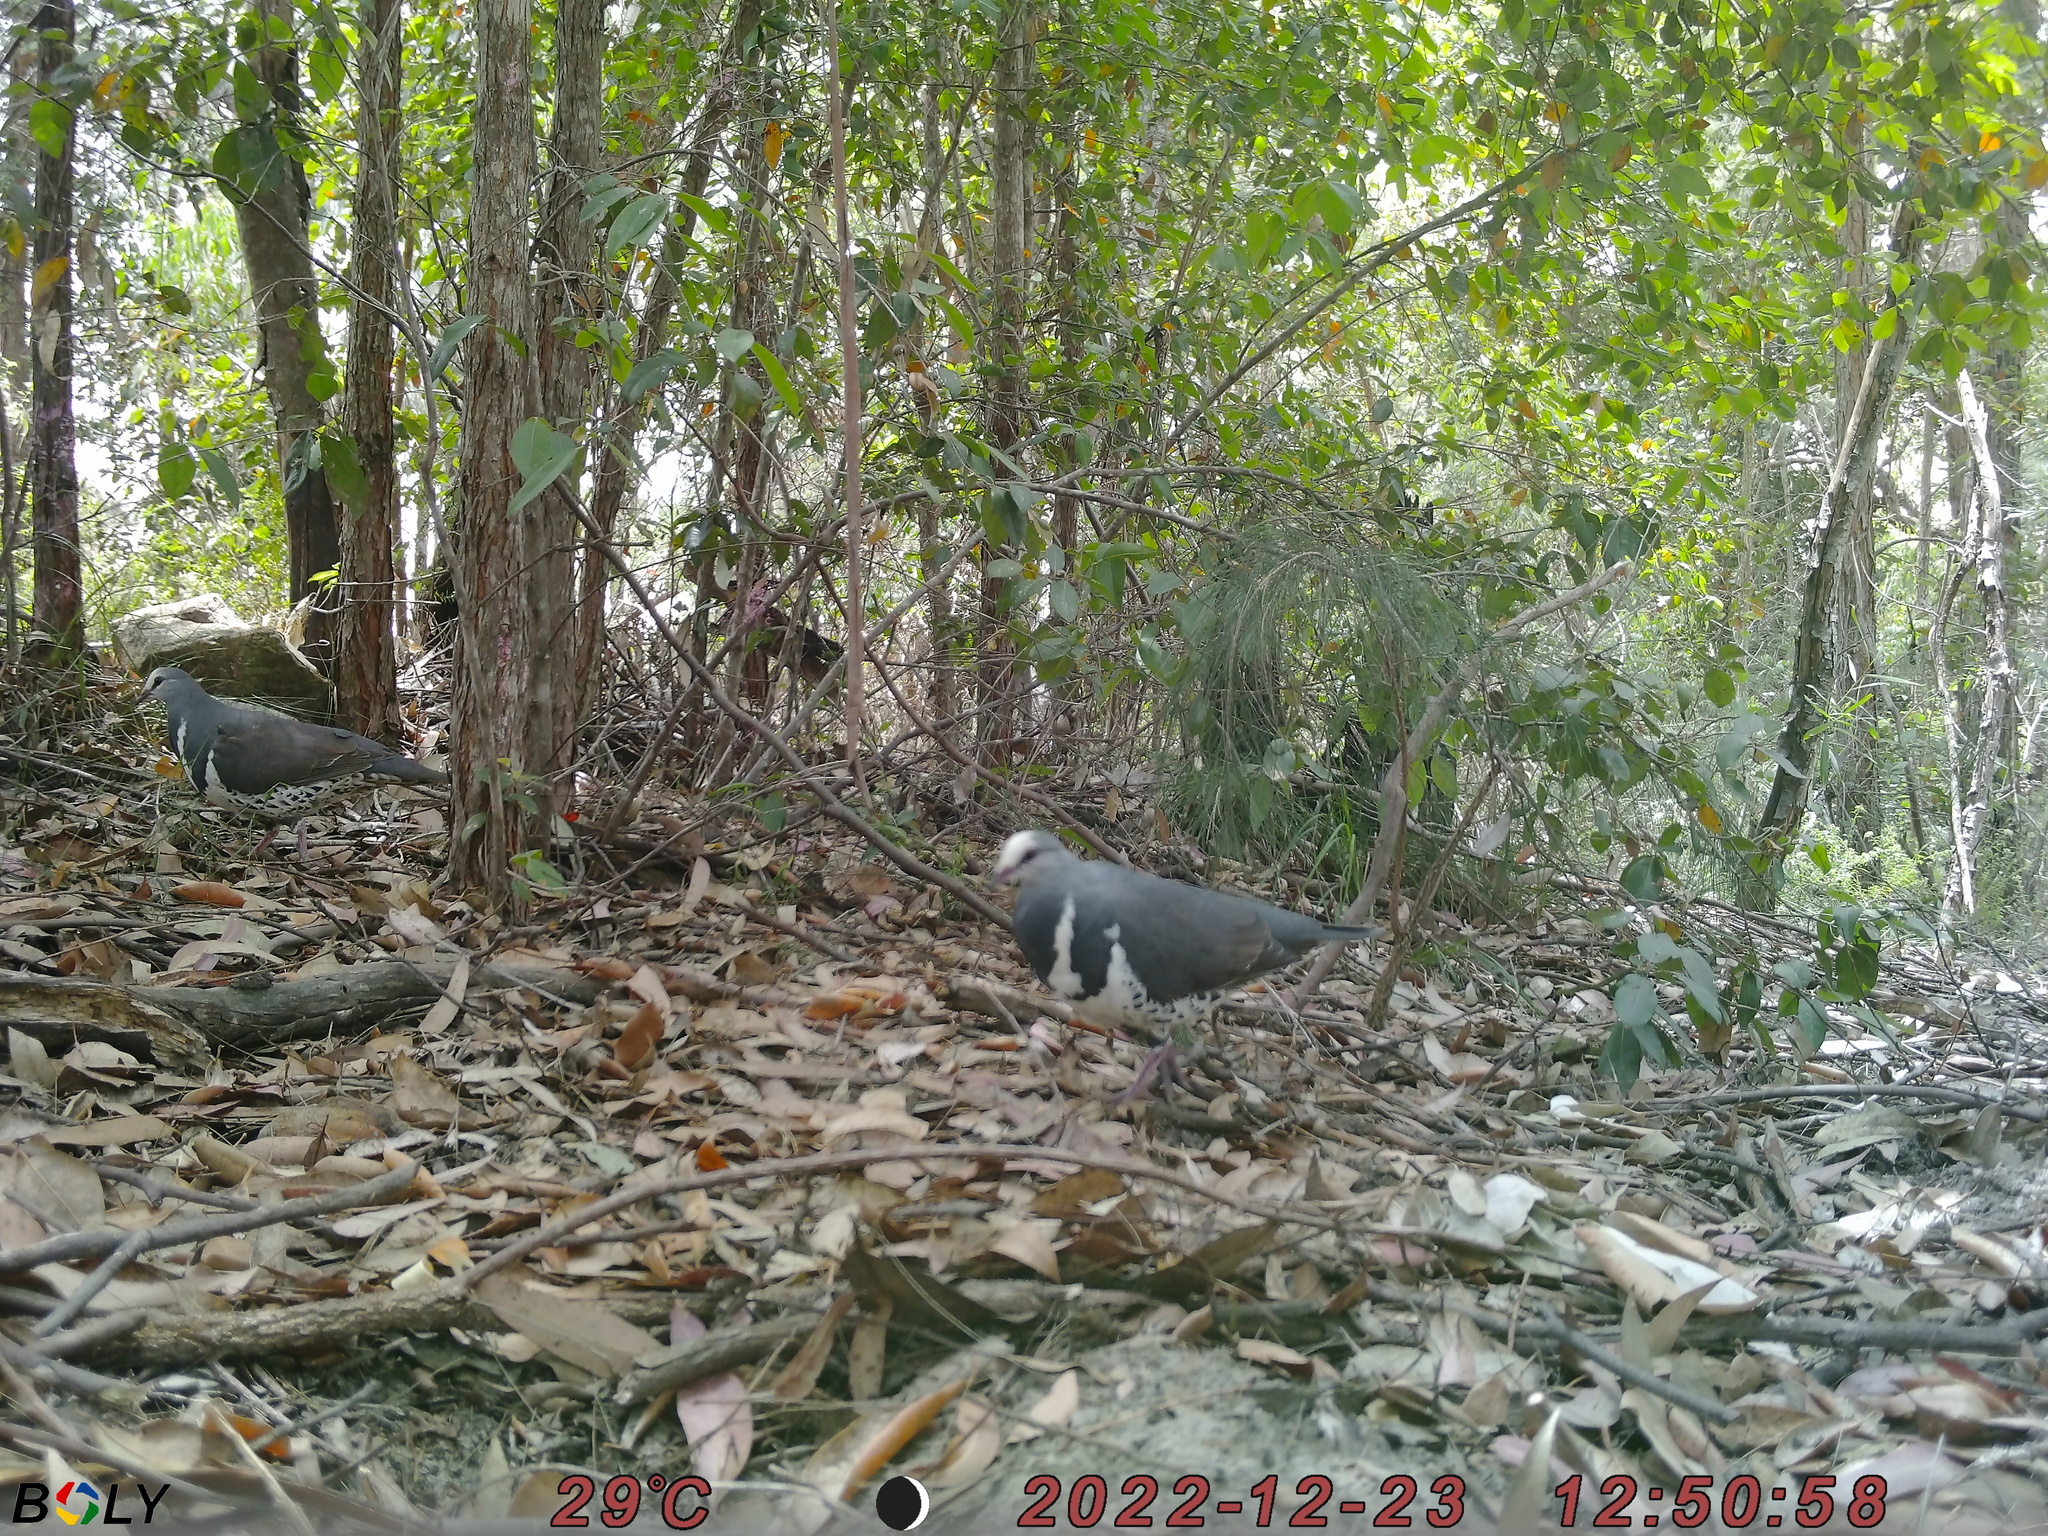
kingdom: Animalia
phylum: Chordata
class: Aves
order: Columbiformes
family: Columbidae
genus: Leucosarcia
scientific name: Leucosarcia melanoleuca
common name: Wonga pigeon
